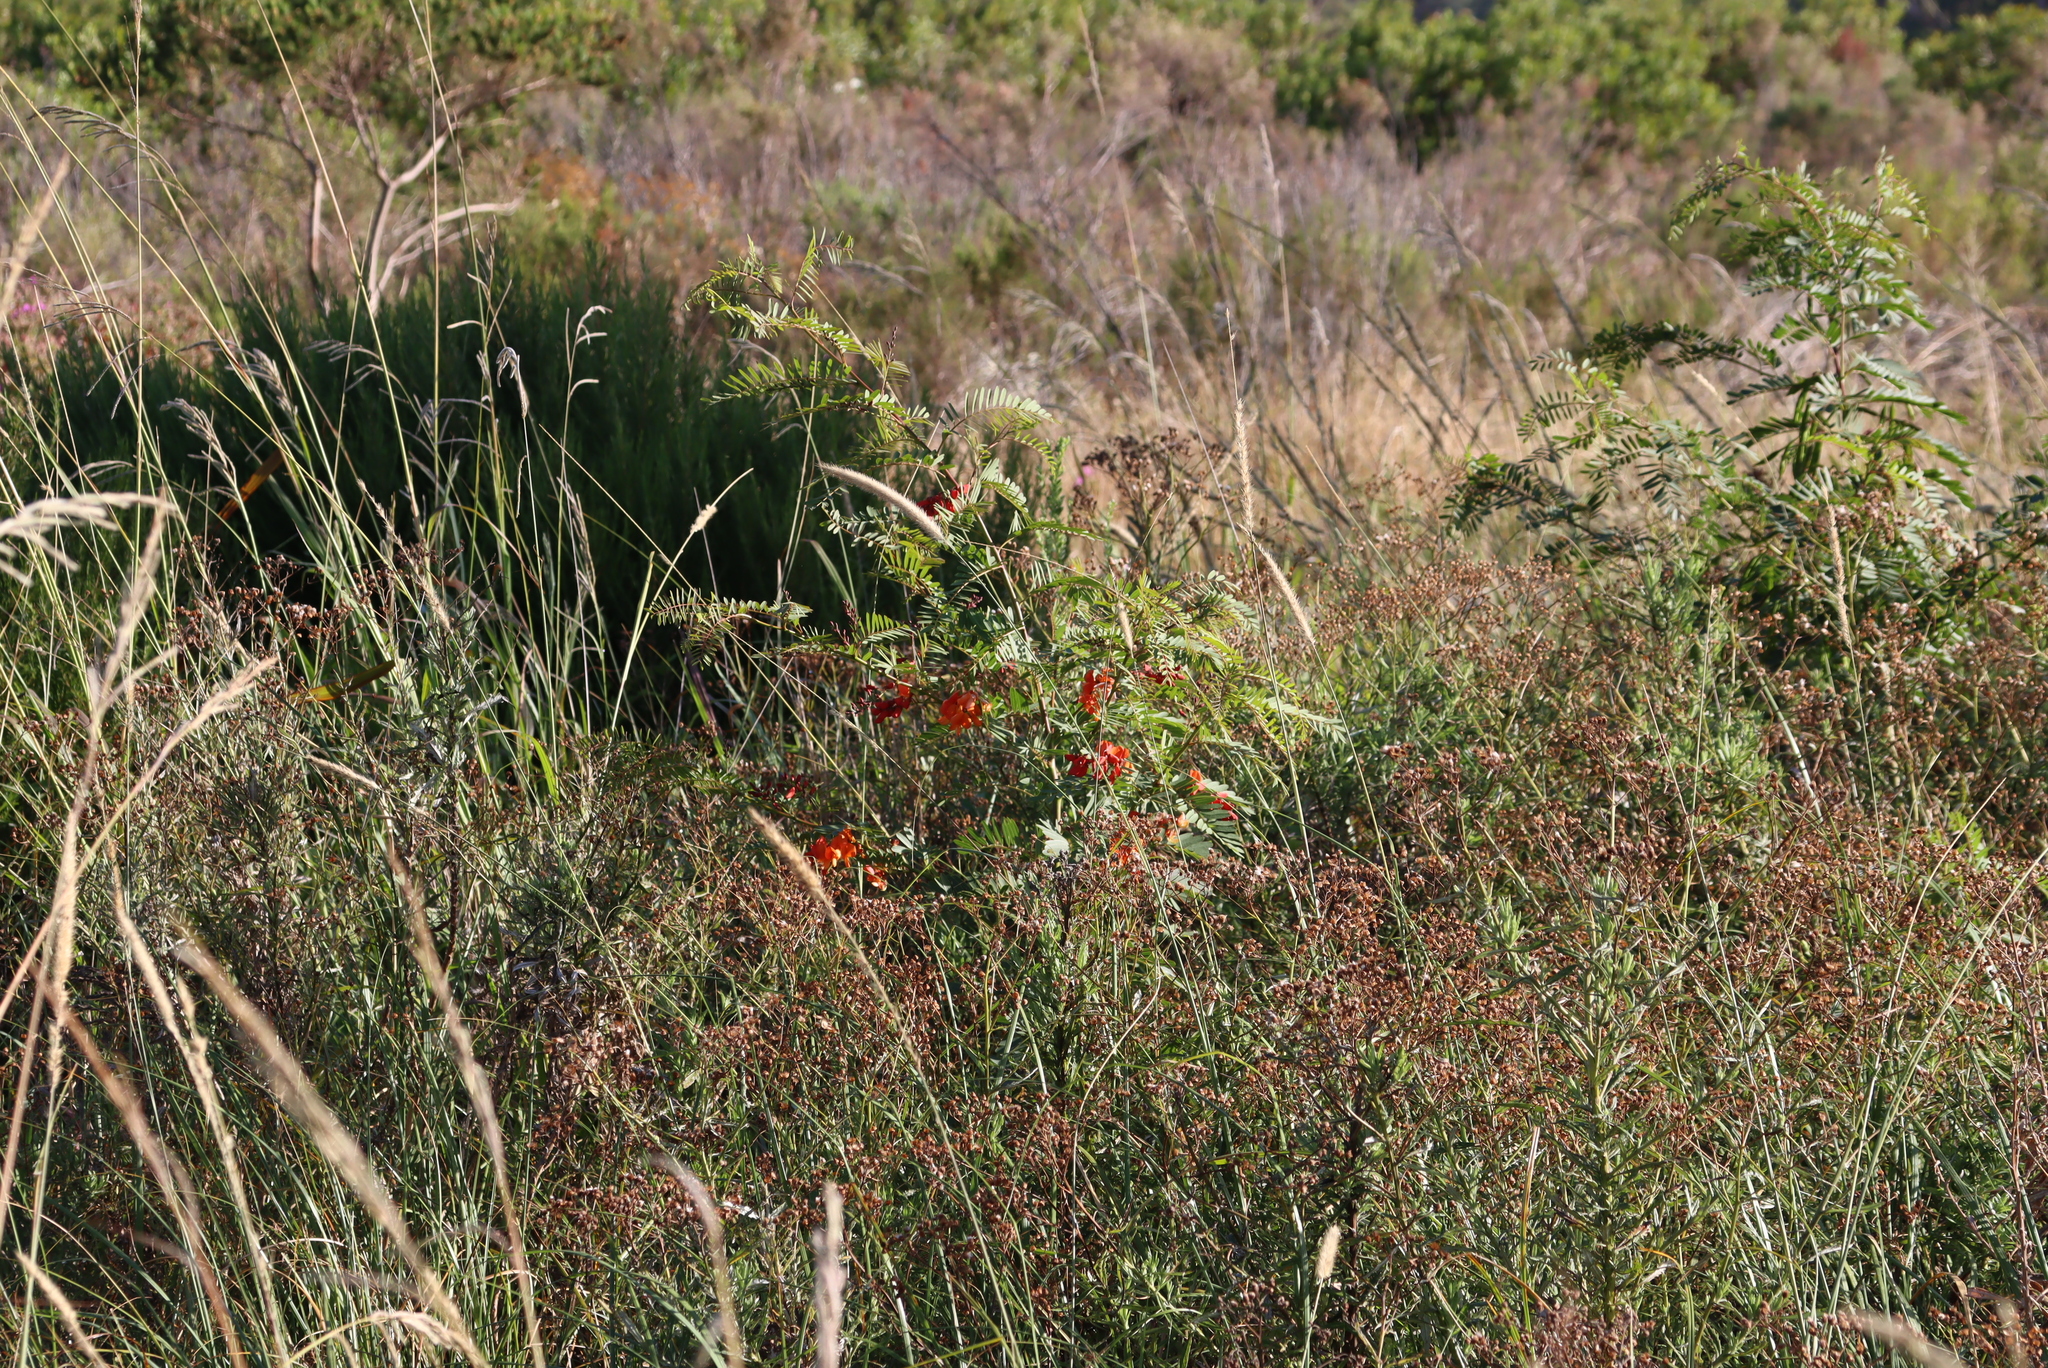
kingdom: Plantae
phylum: Tracheophyta
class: Magnoliopsida
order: Fabales
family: Fabaceae
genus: Sesbania
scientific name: Sesbania punicea
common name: Rattlebox
